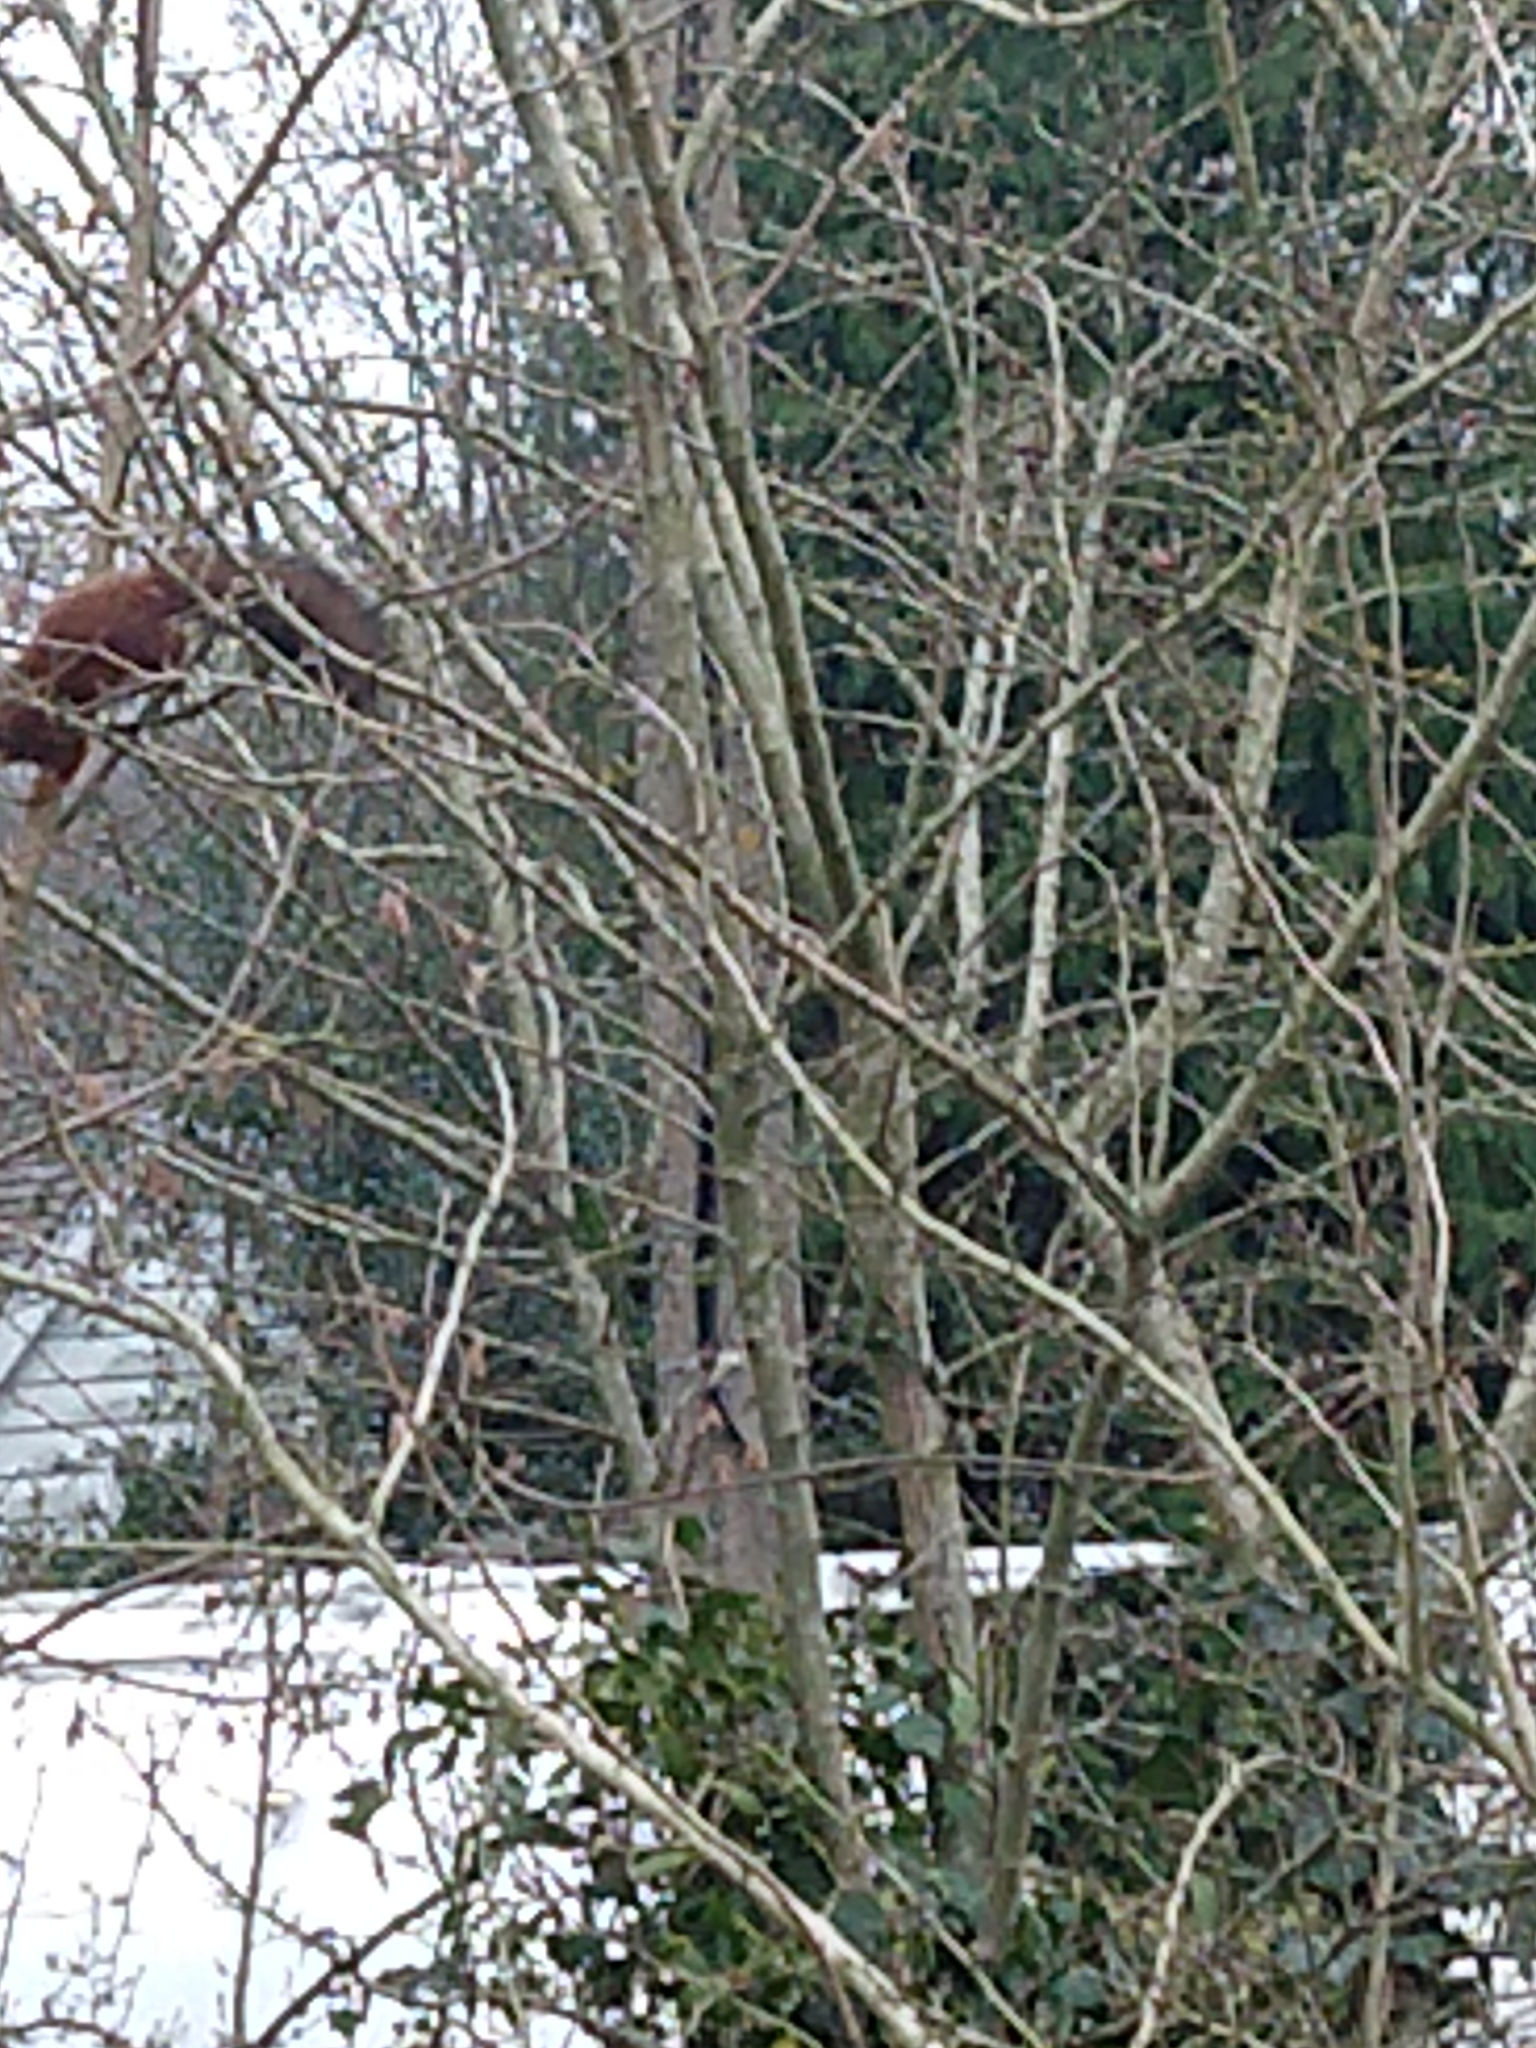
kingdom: Animalia
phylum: Chordata
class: Mammalia
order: Rodentia
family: Sciuridae
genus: Sciurus
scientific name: Sciurus vulgaris
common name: Eurasian red squirrel
